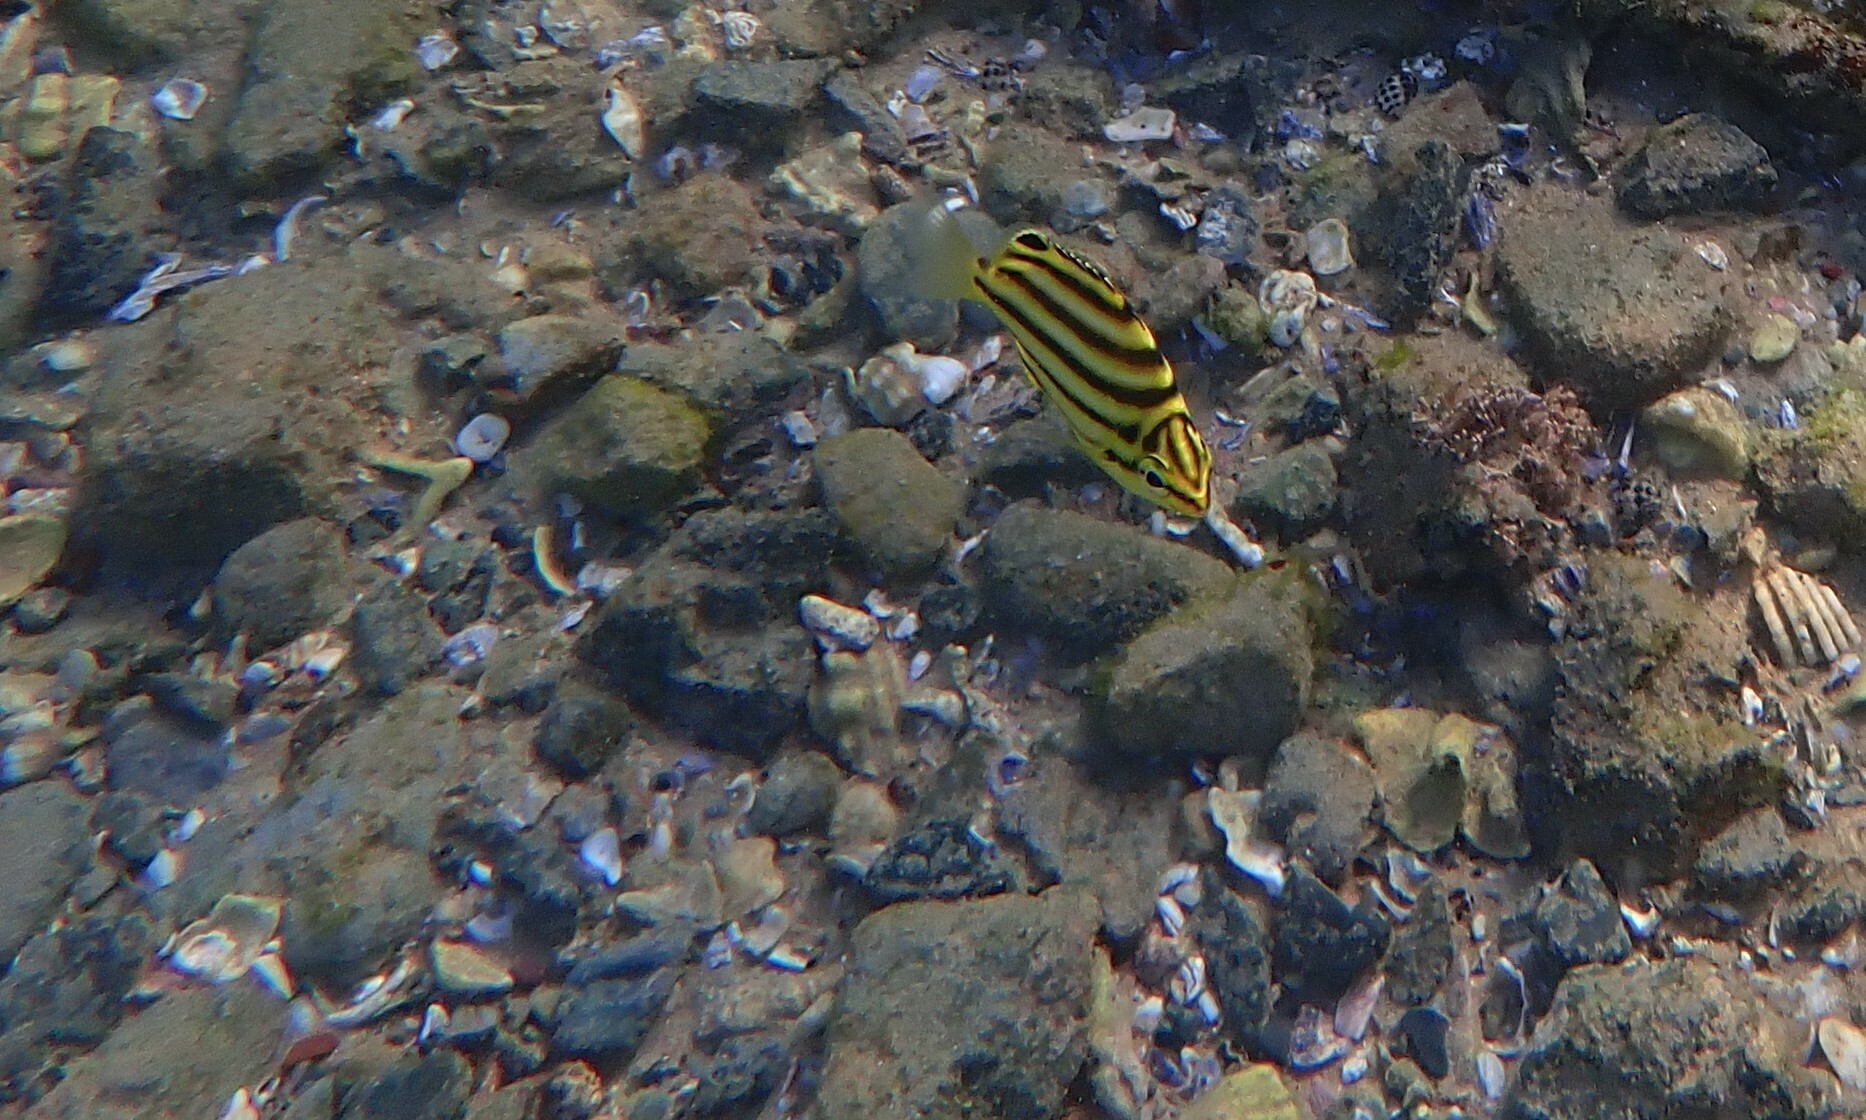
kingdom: Animalia
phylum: Chordata
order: Perciformes
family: Kyphosidae
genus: Microcanthus
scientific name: Microcanthus joyceae
